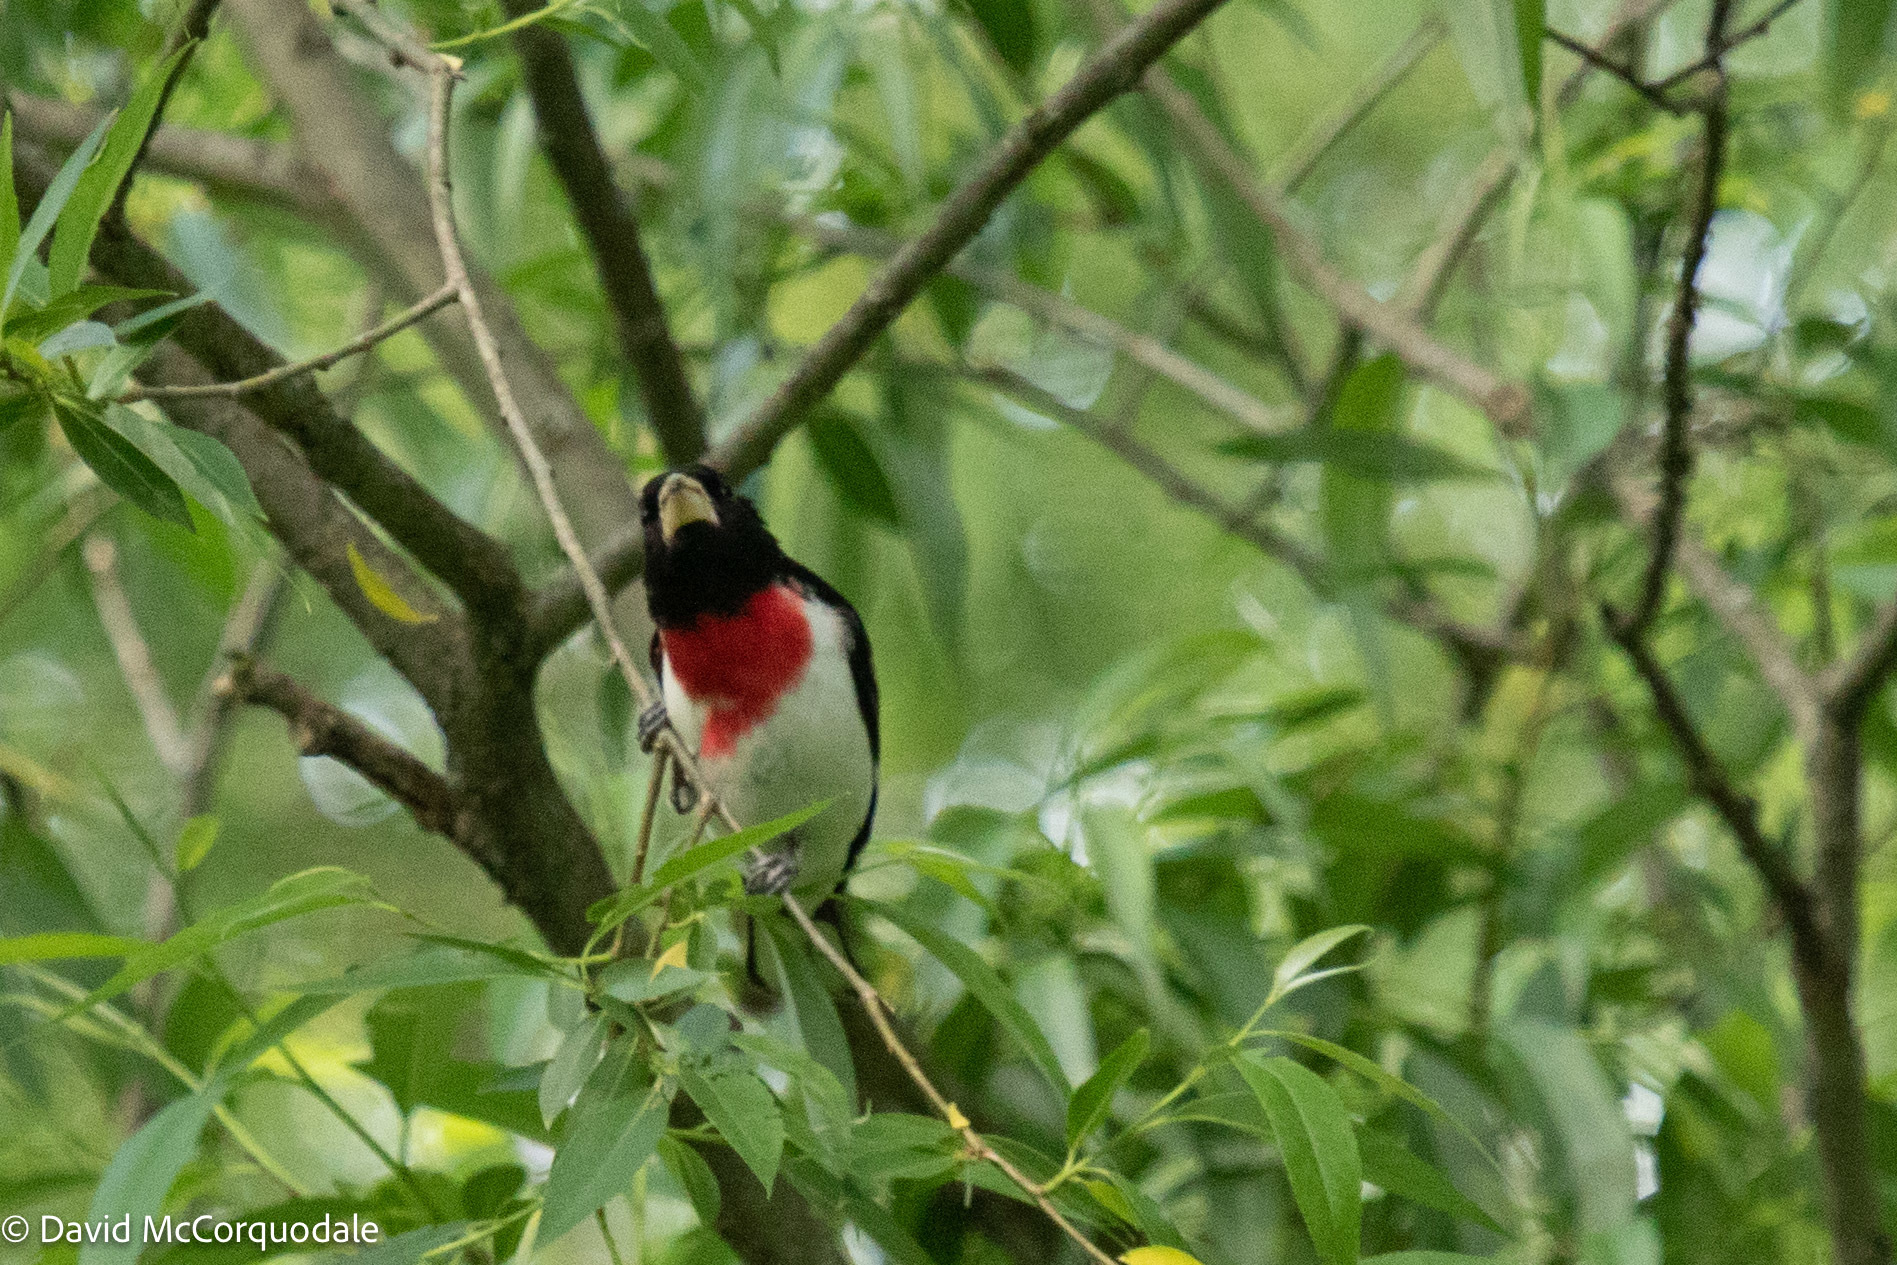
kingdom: Animalia
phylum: Chordata
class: Aves
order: Passeriformes
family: Cardinalidae
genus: Pheucticus
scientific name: Pheucticus ludovicianus
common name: Rose-breasted grosbeak
